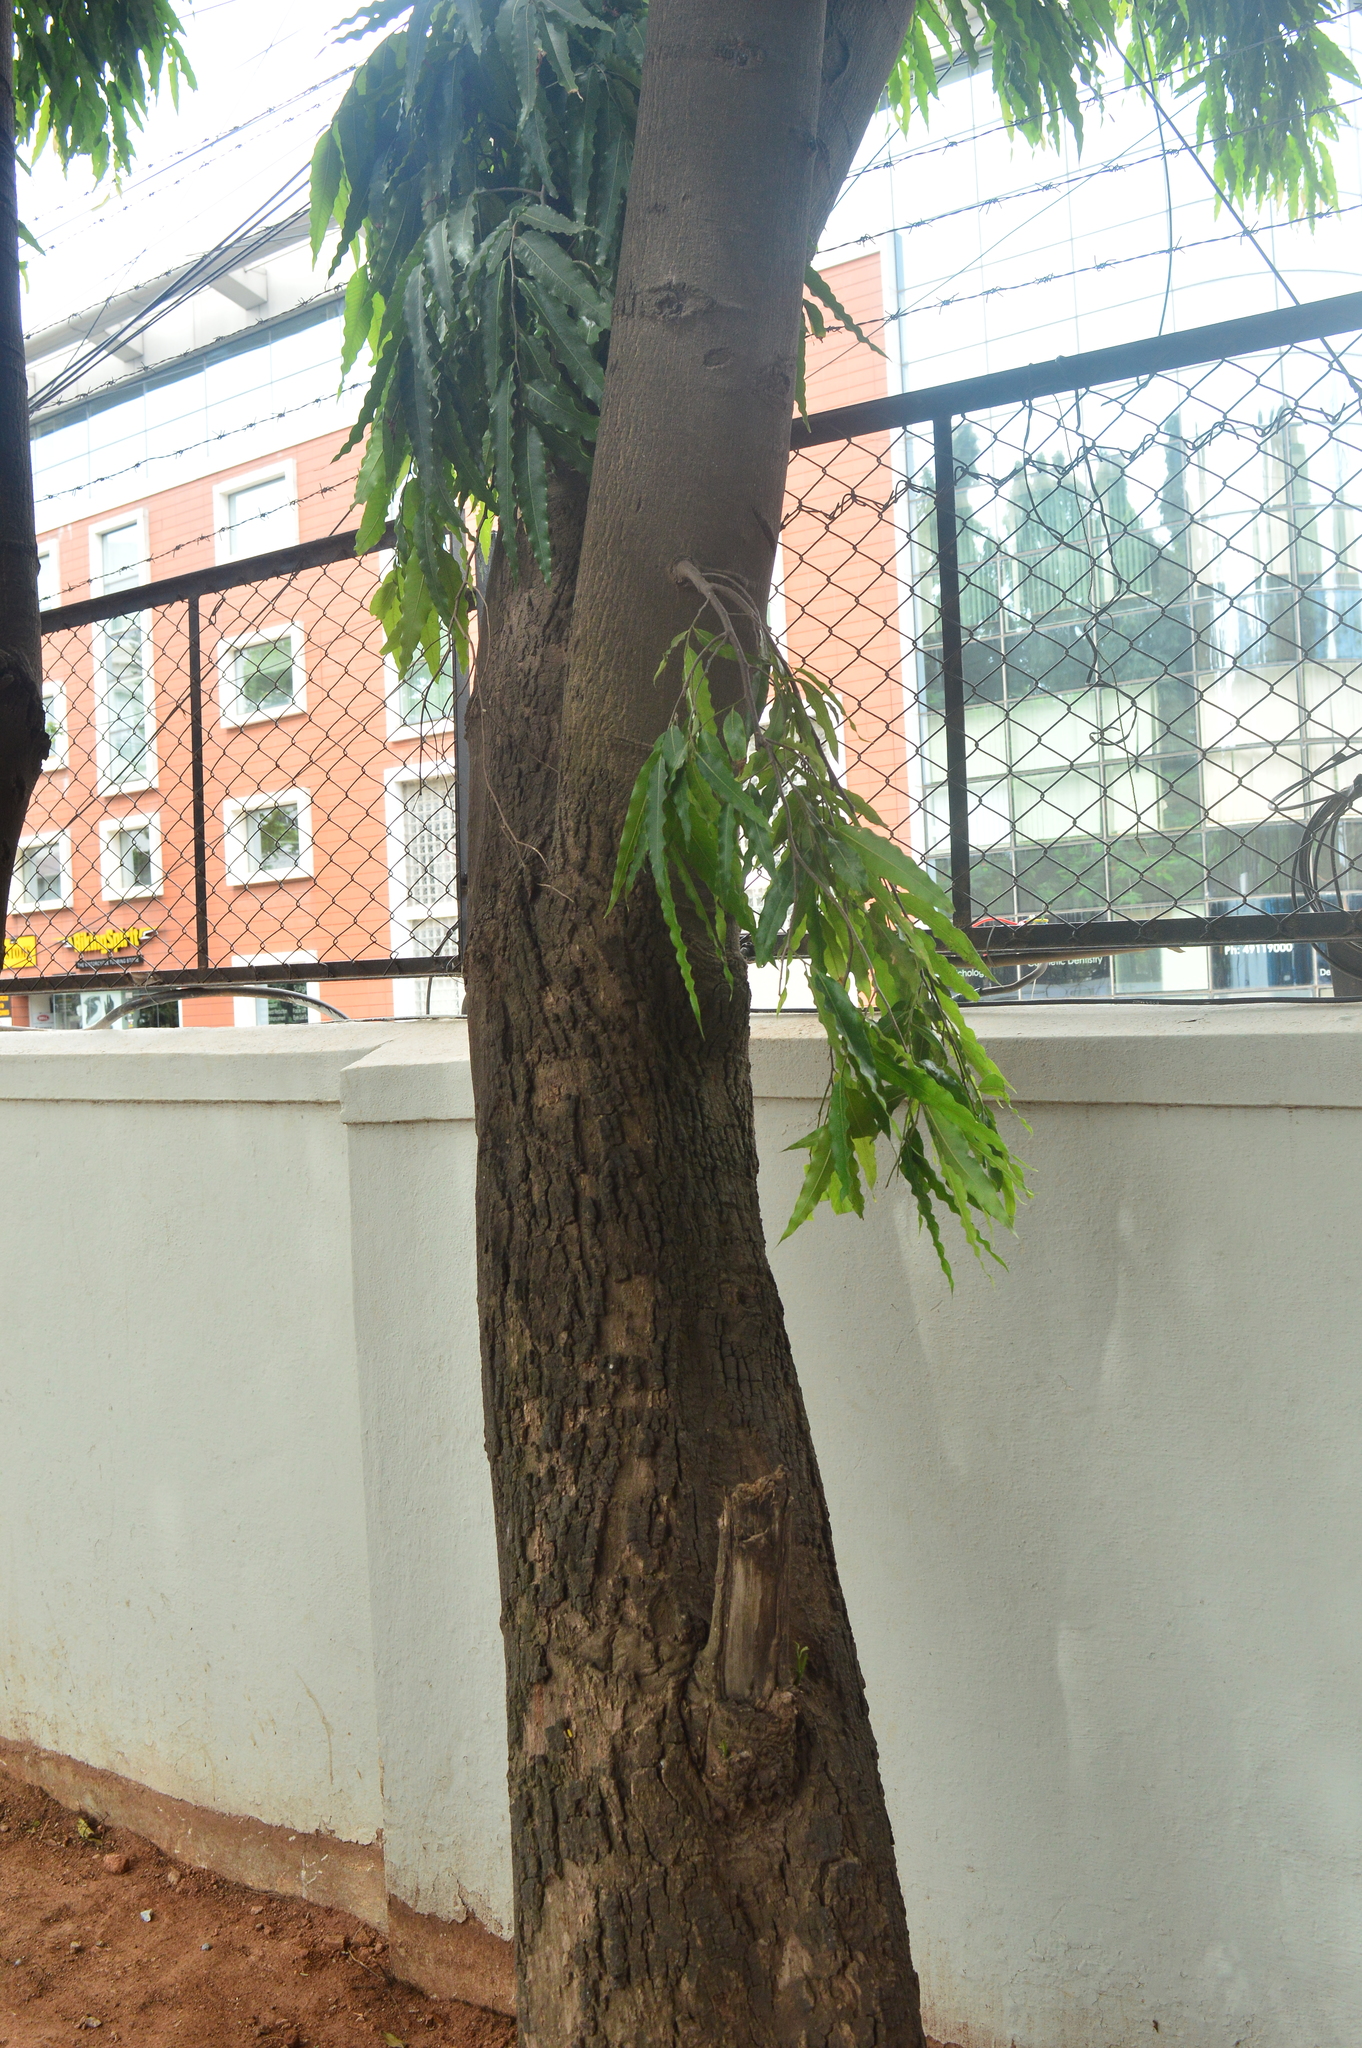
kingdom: Plantae
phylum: Tracheophyta
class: Magnoliopsida
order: Magnoliales
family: Annonaceae
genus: Polyalthia
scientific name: Polyalthia longifolia
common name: Cemetery-tree
